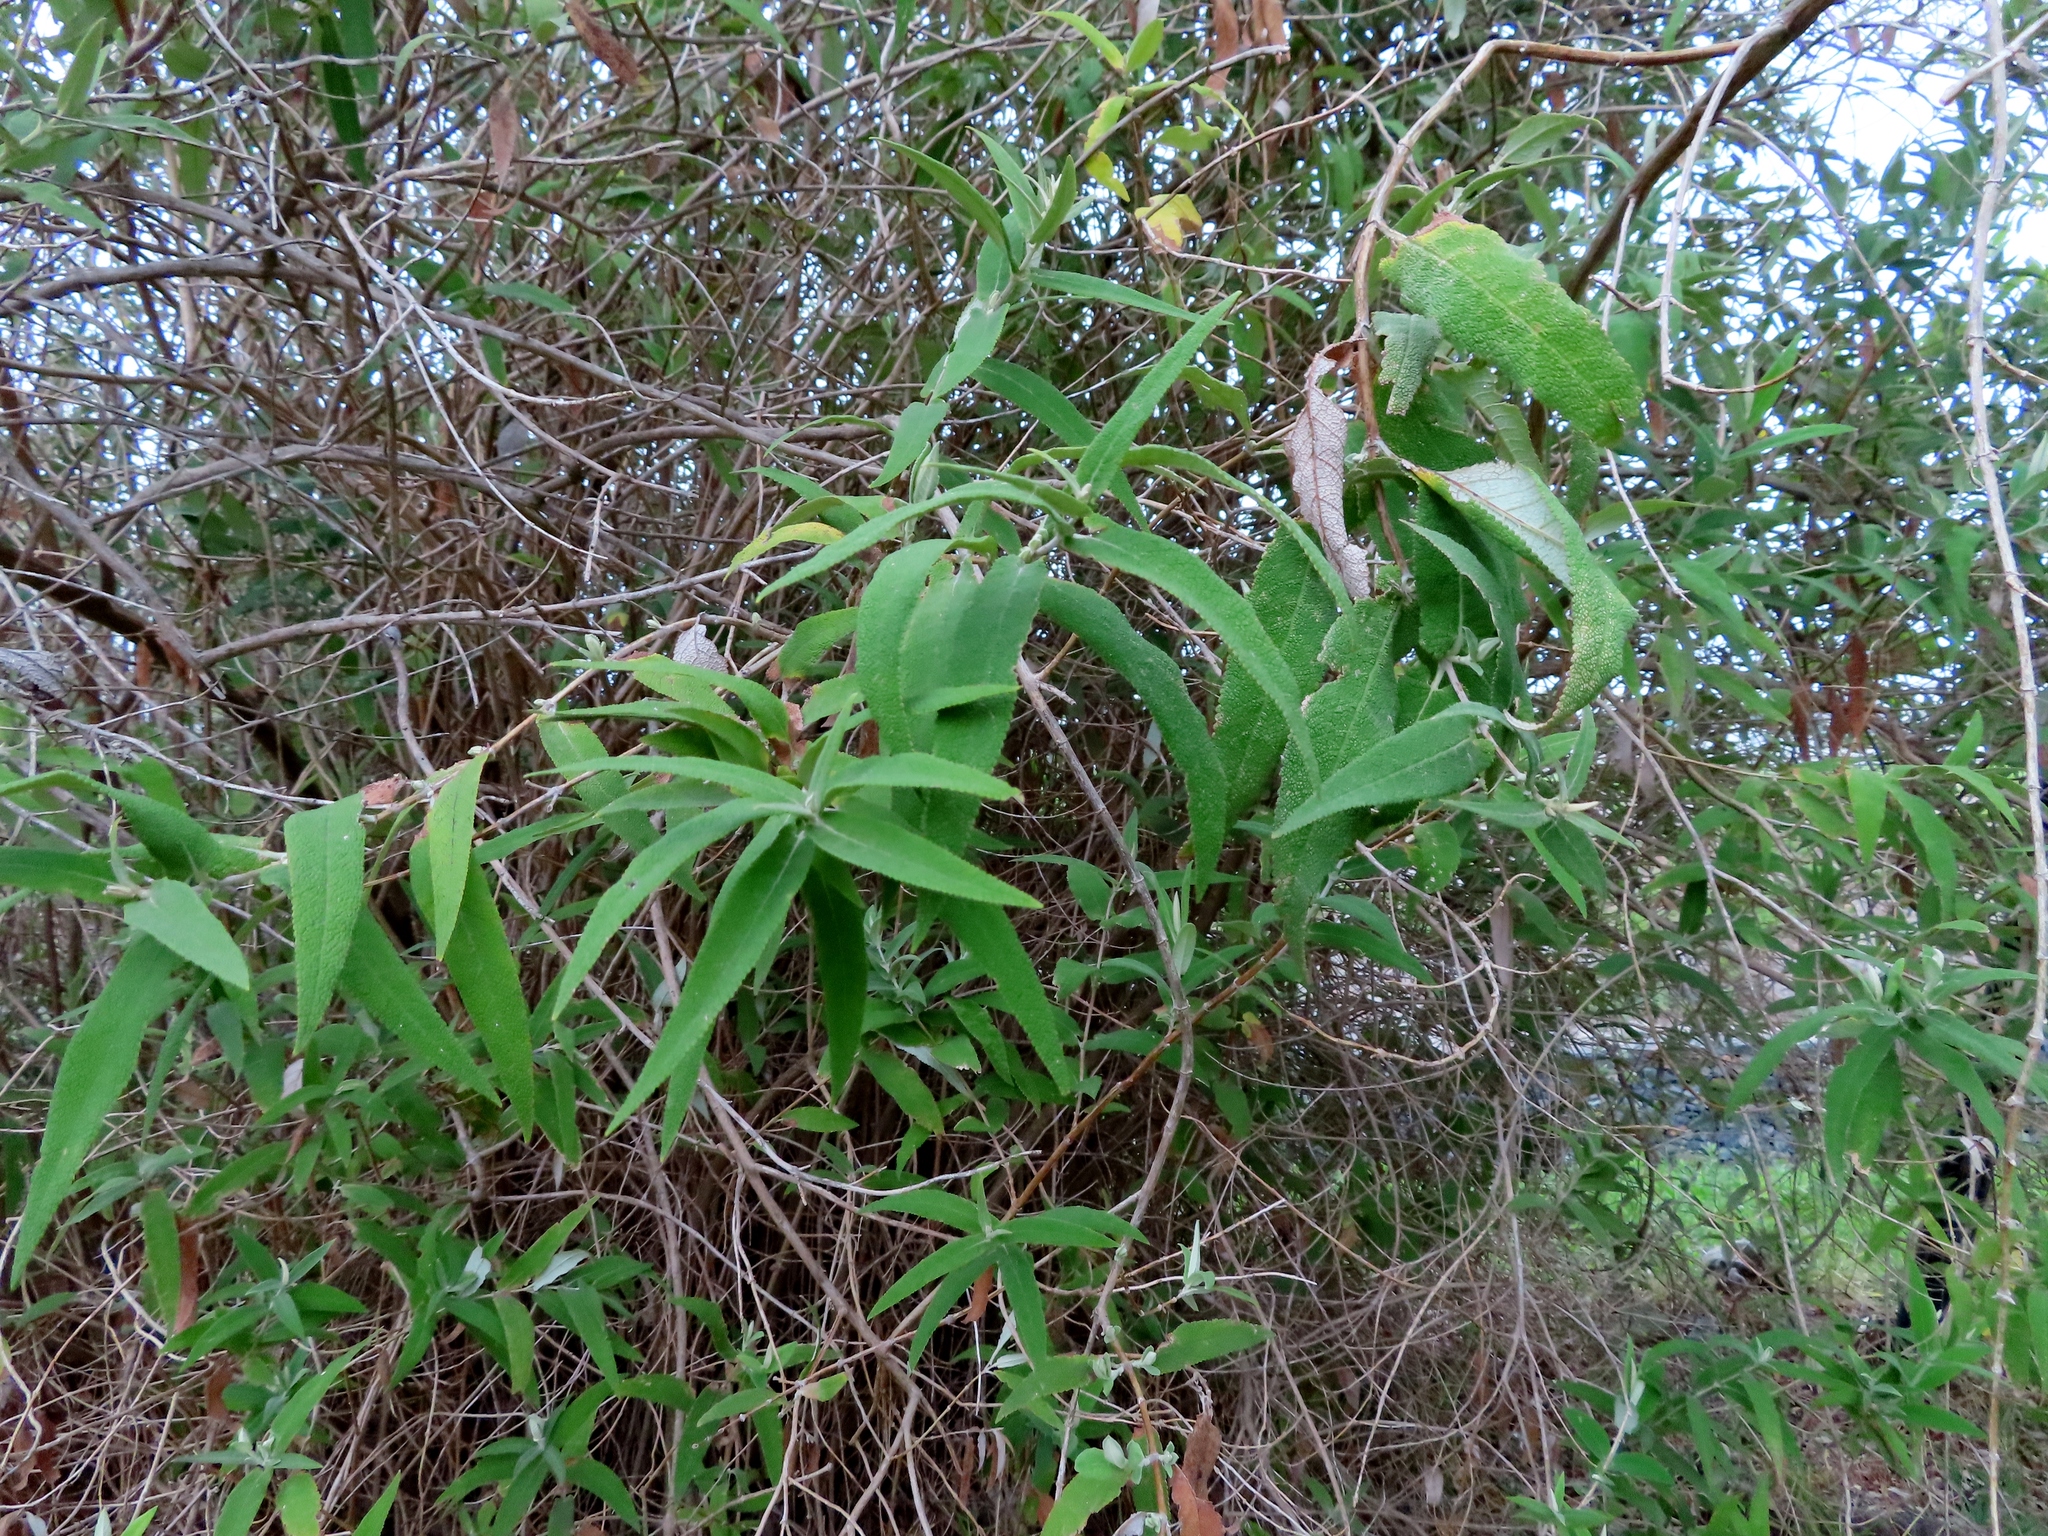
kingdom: Plantae
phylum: Tracheophyta
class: Magnoliopsida
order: Lamiales
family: Scrophulariaceae
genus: Buddleja
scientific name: Buddleja salviifolia
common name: Sagewood
